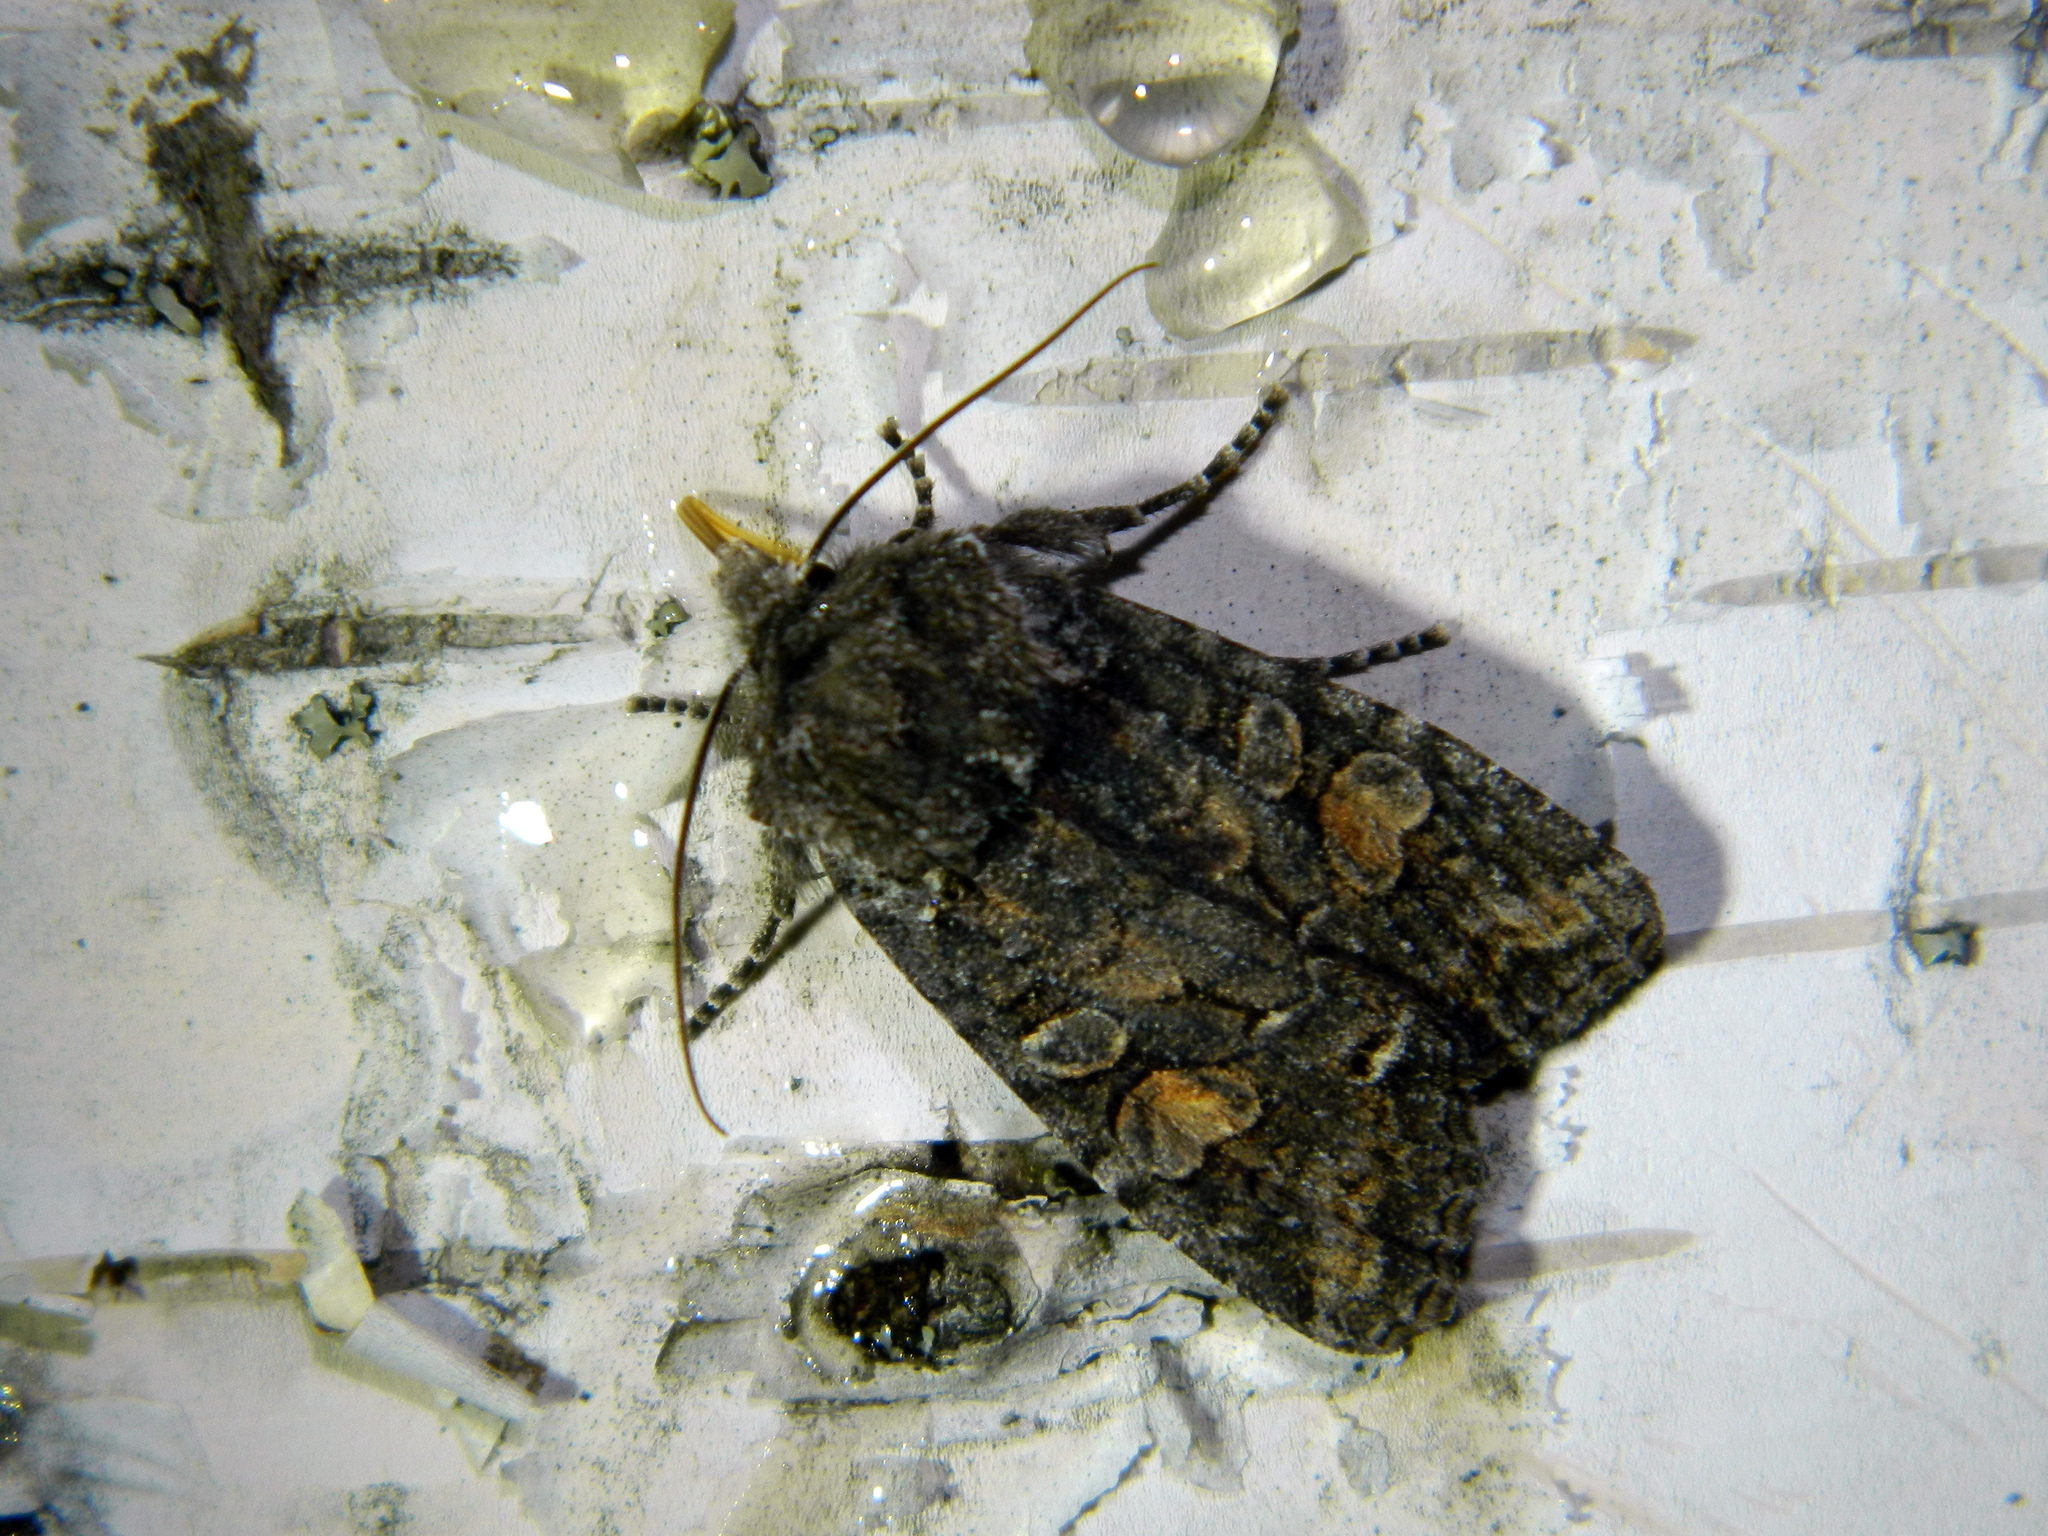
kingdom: Animalia
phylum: Arthropoda
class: Insecta
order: Lepidoptera
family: Noctuidae
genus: Lithophane
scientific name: Lithophane pexata
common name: Plush-naped pinion moth
